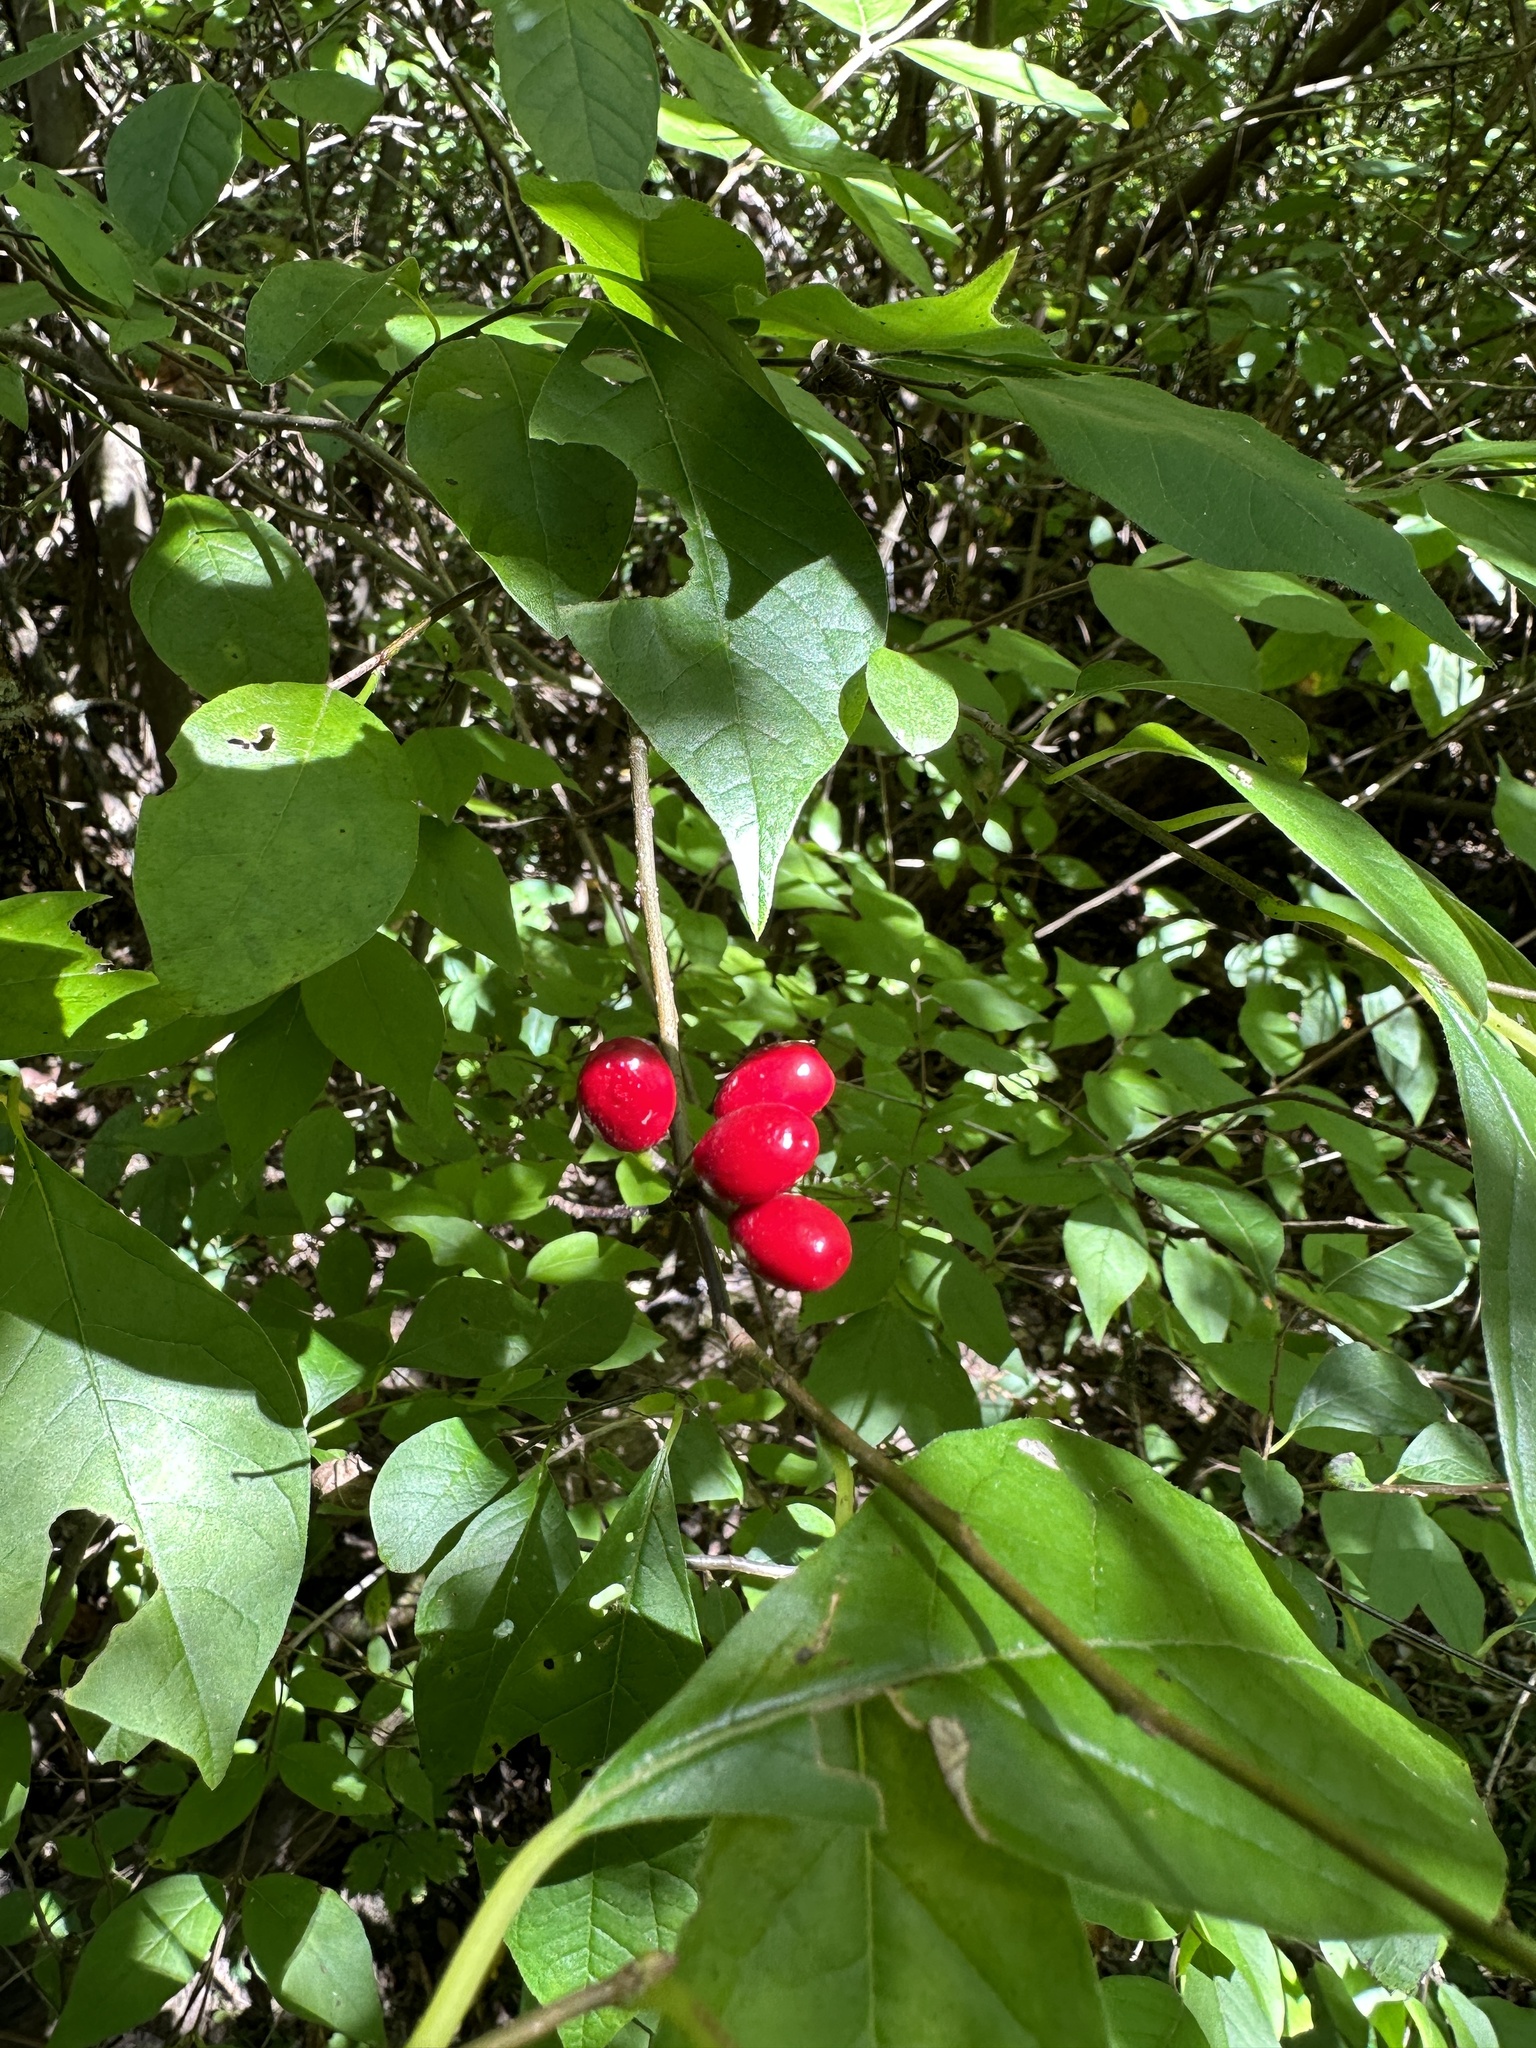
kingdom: Plantae
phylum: Tracheophyta
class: Magnoliopsida
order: Laurales
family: Lauraceae
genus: Lindera
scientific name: Lindera benzoin
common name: Spicebush
